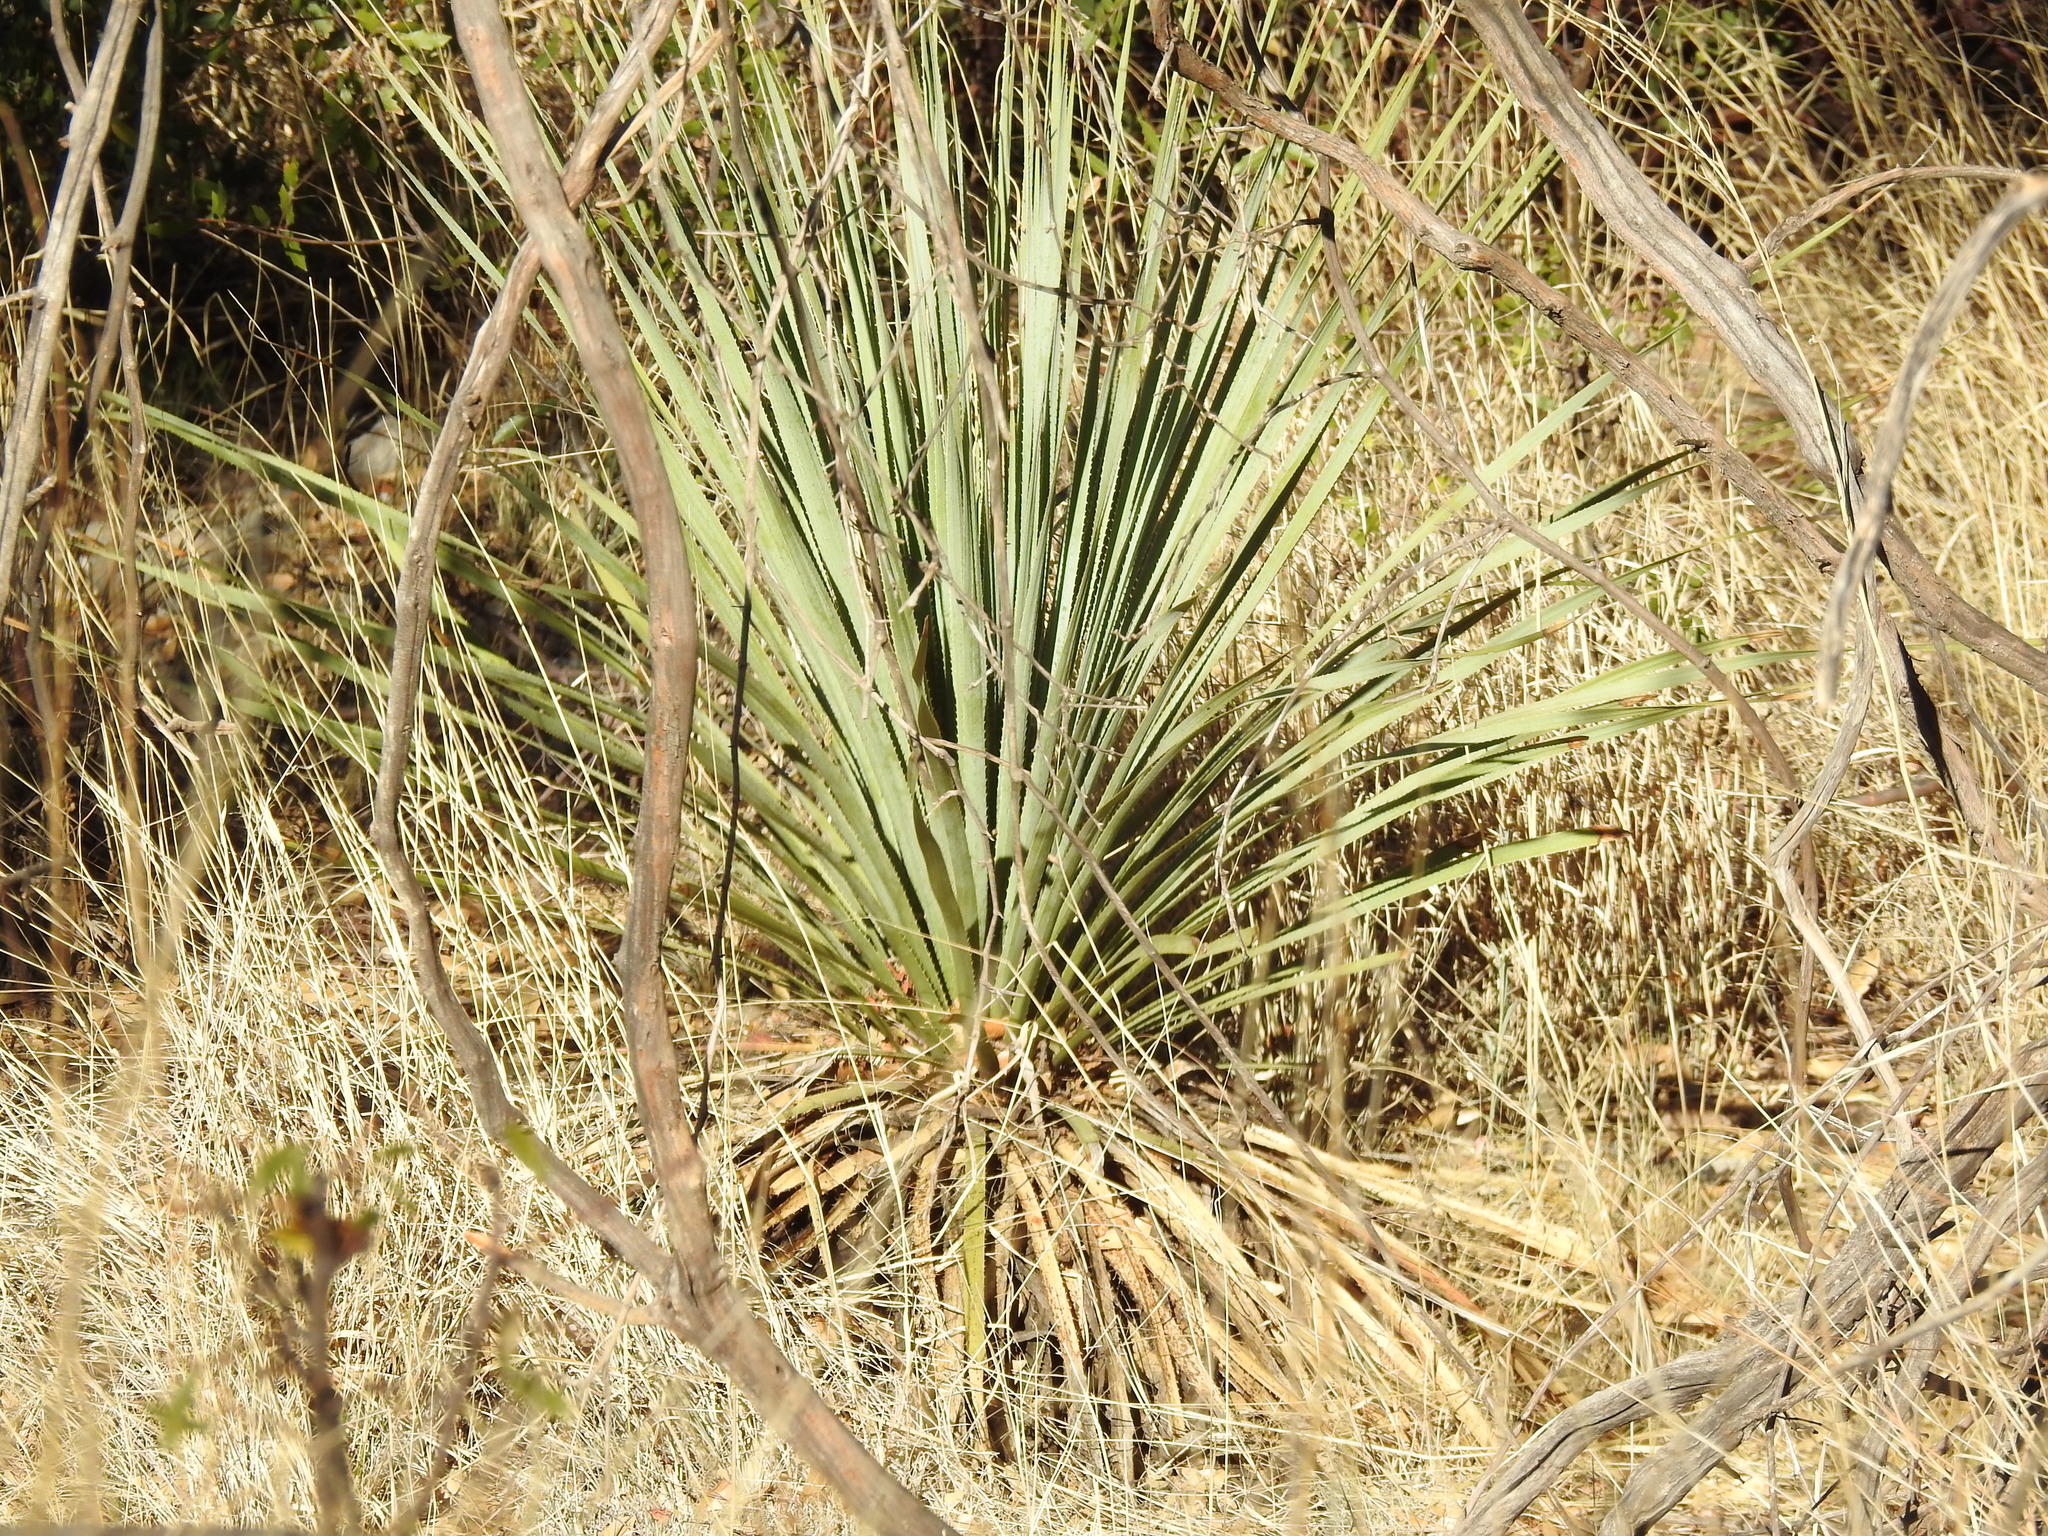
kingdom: Plantae
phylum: Tracheophyta
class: Liliopsida
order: Asparagales
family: Asparagaceae
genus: Dasylirion
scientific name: Dasylirion wheeleri
